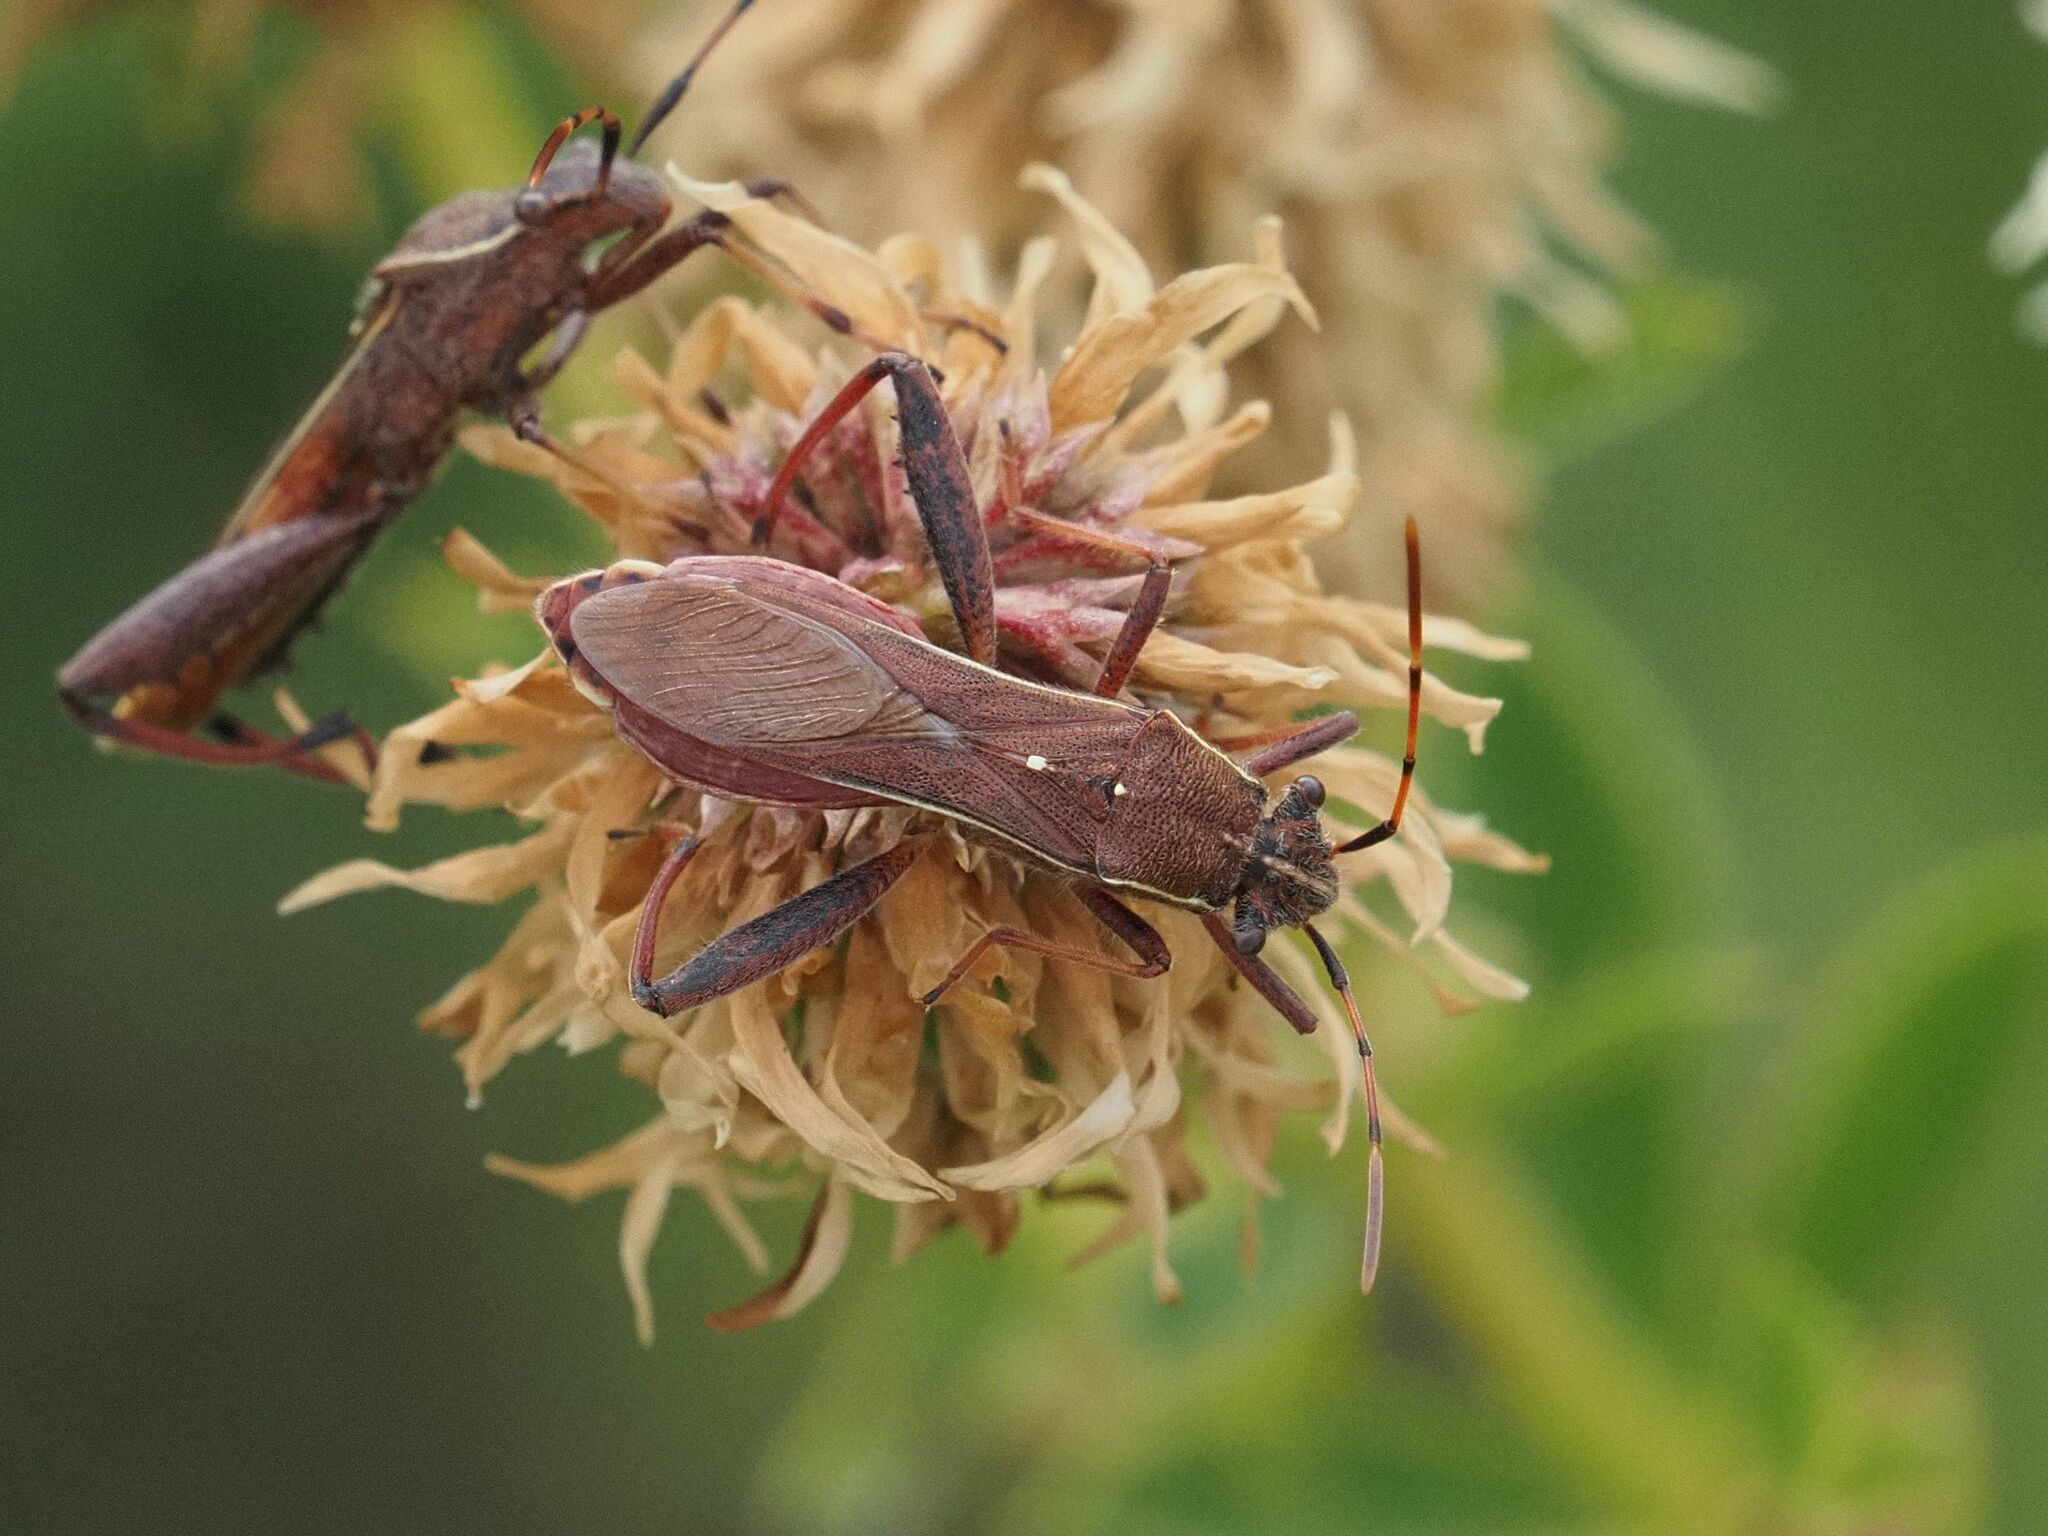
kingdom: Animalia
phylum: Arthropoda
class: Insecta
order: Hemiptera
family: Alydidae
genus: Camptopus
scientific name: Camptopus lateralis
